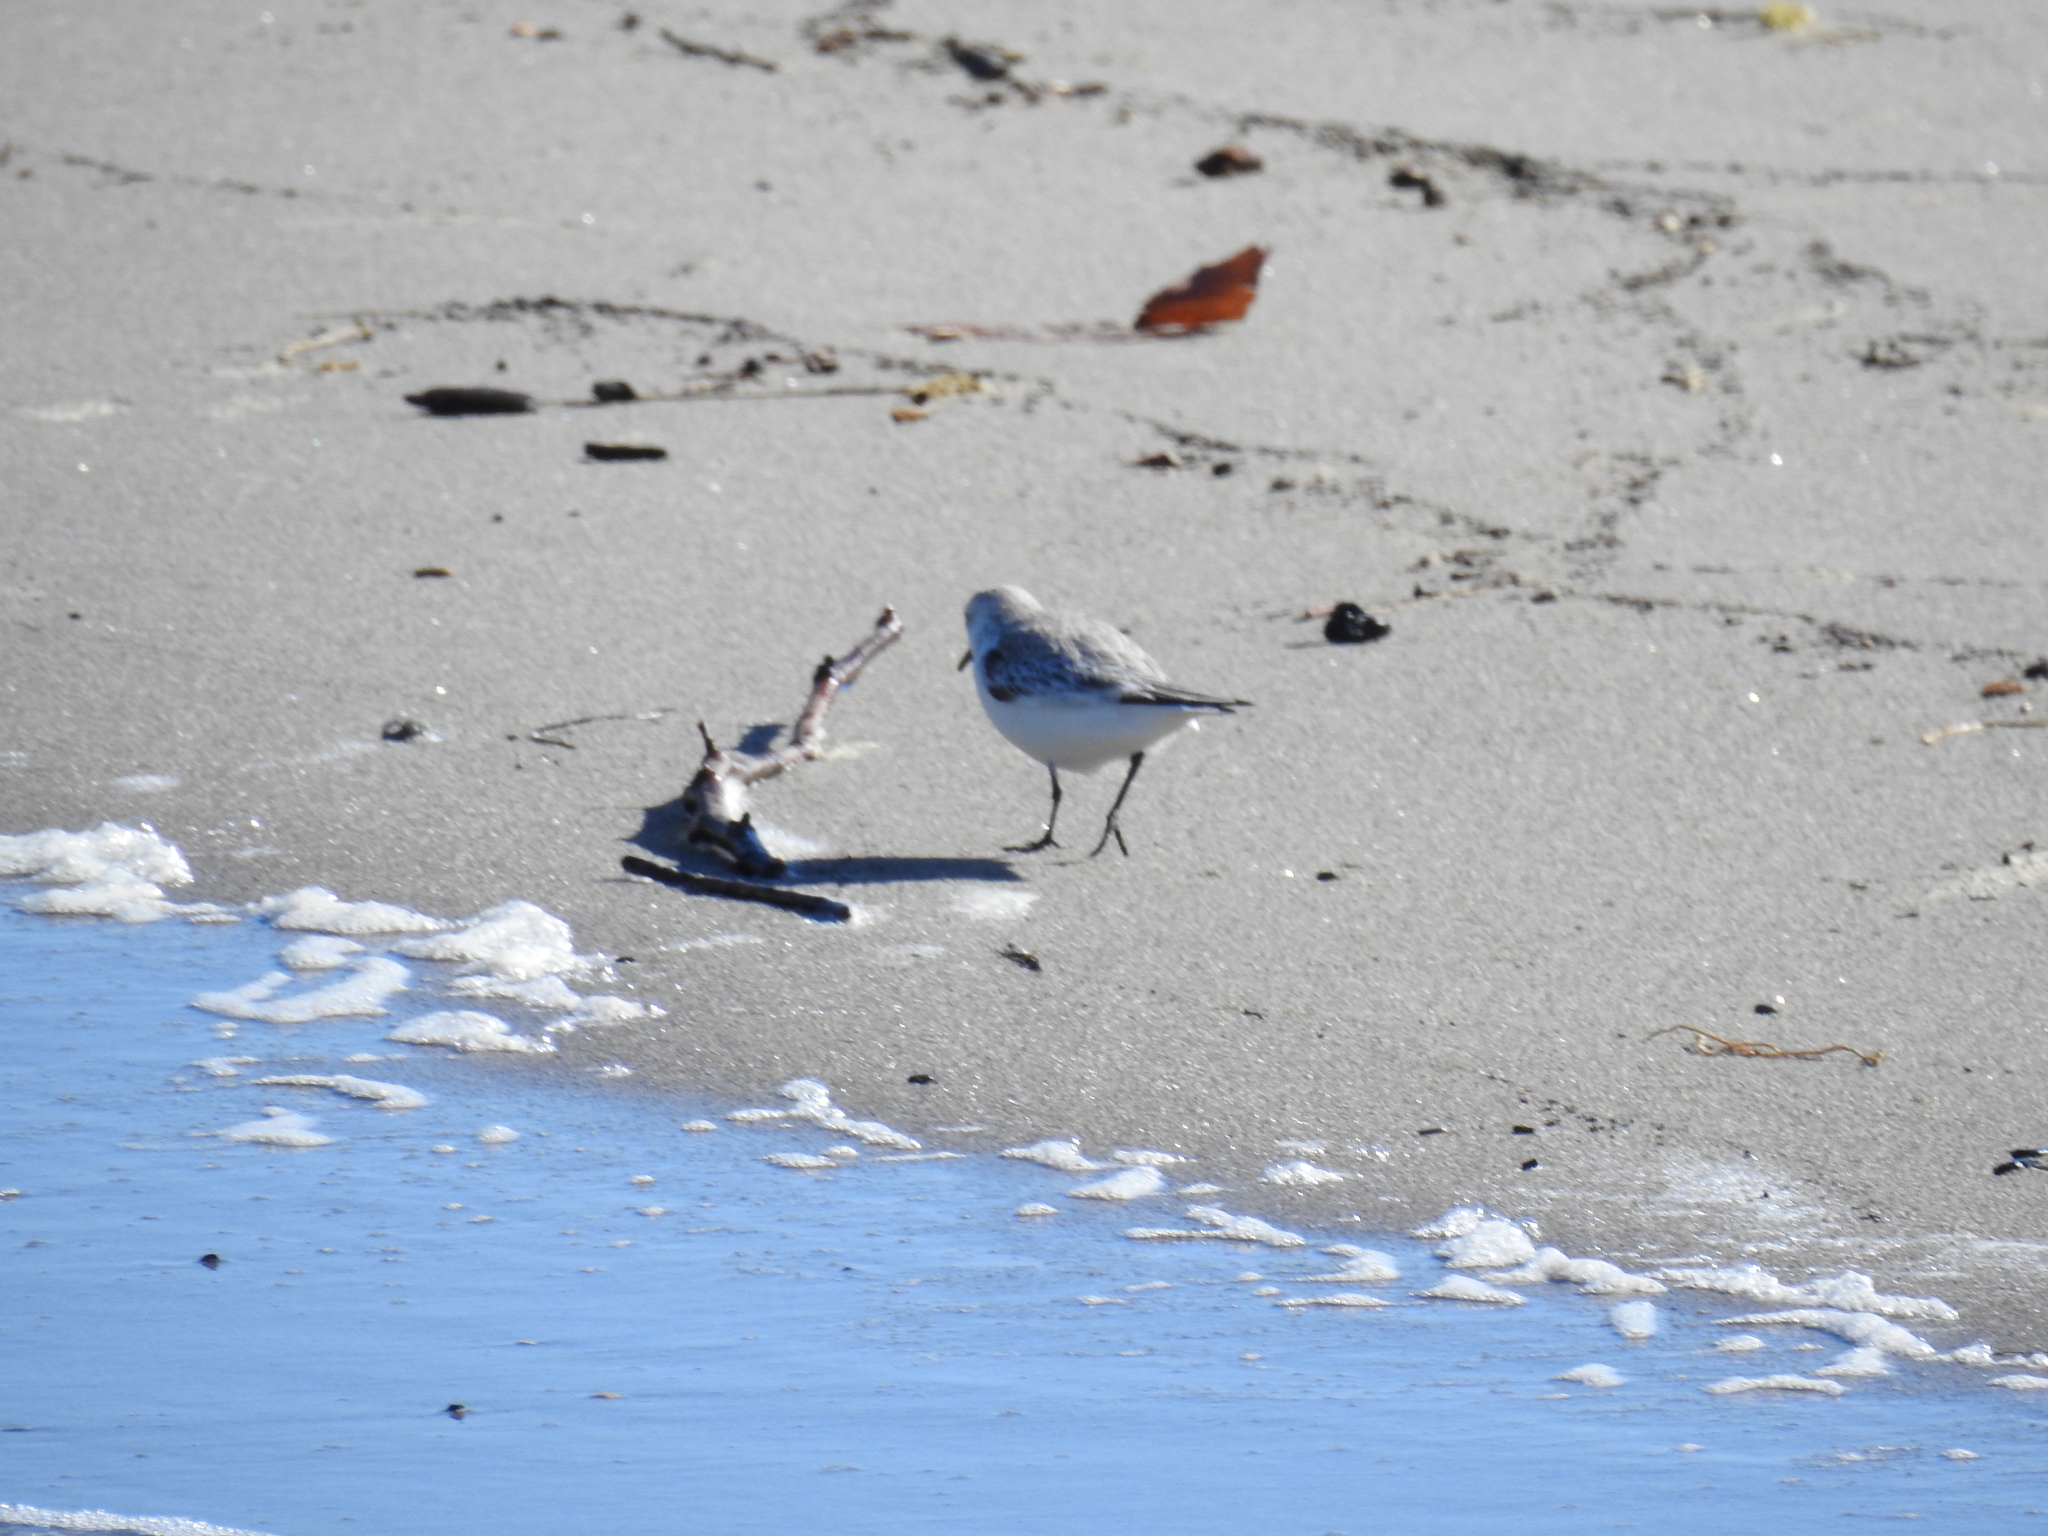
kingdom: Animalia
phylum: Chordata
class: Aves
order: Charadriiformes
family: Scolopacidae
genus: Calidris
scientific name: Calidris alba
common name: Sanderling
